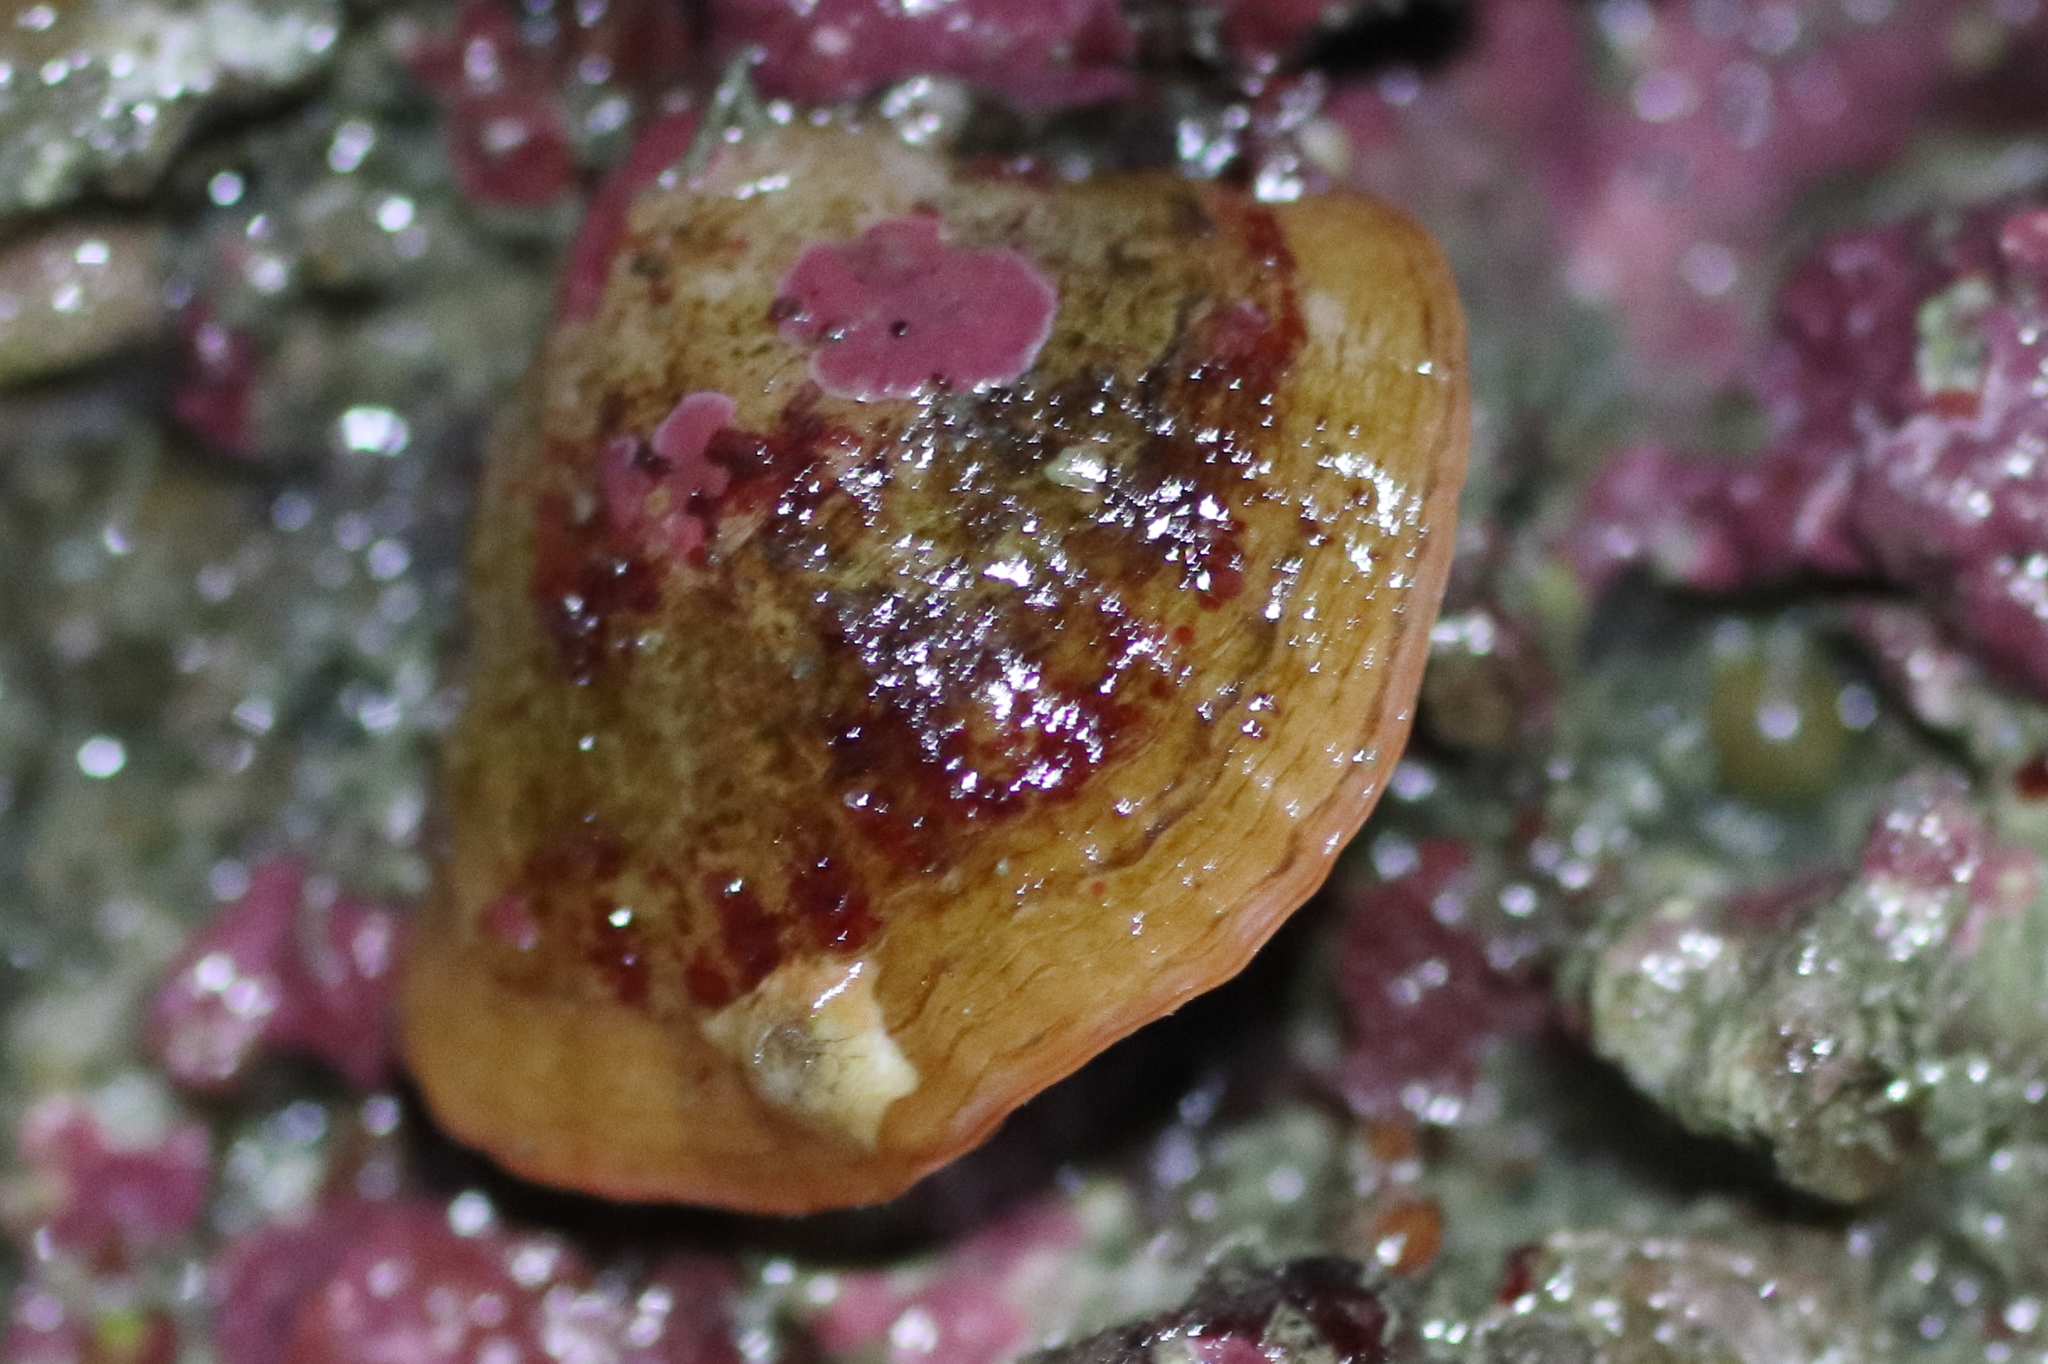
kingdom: Animalia
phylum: Brachiopoda
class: Rhynchonellata
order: Terebratulida
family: Terebrataliidae
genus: Terebratalia
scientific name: Terebratalia transversa
